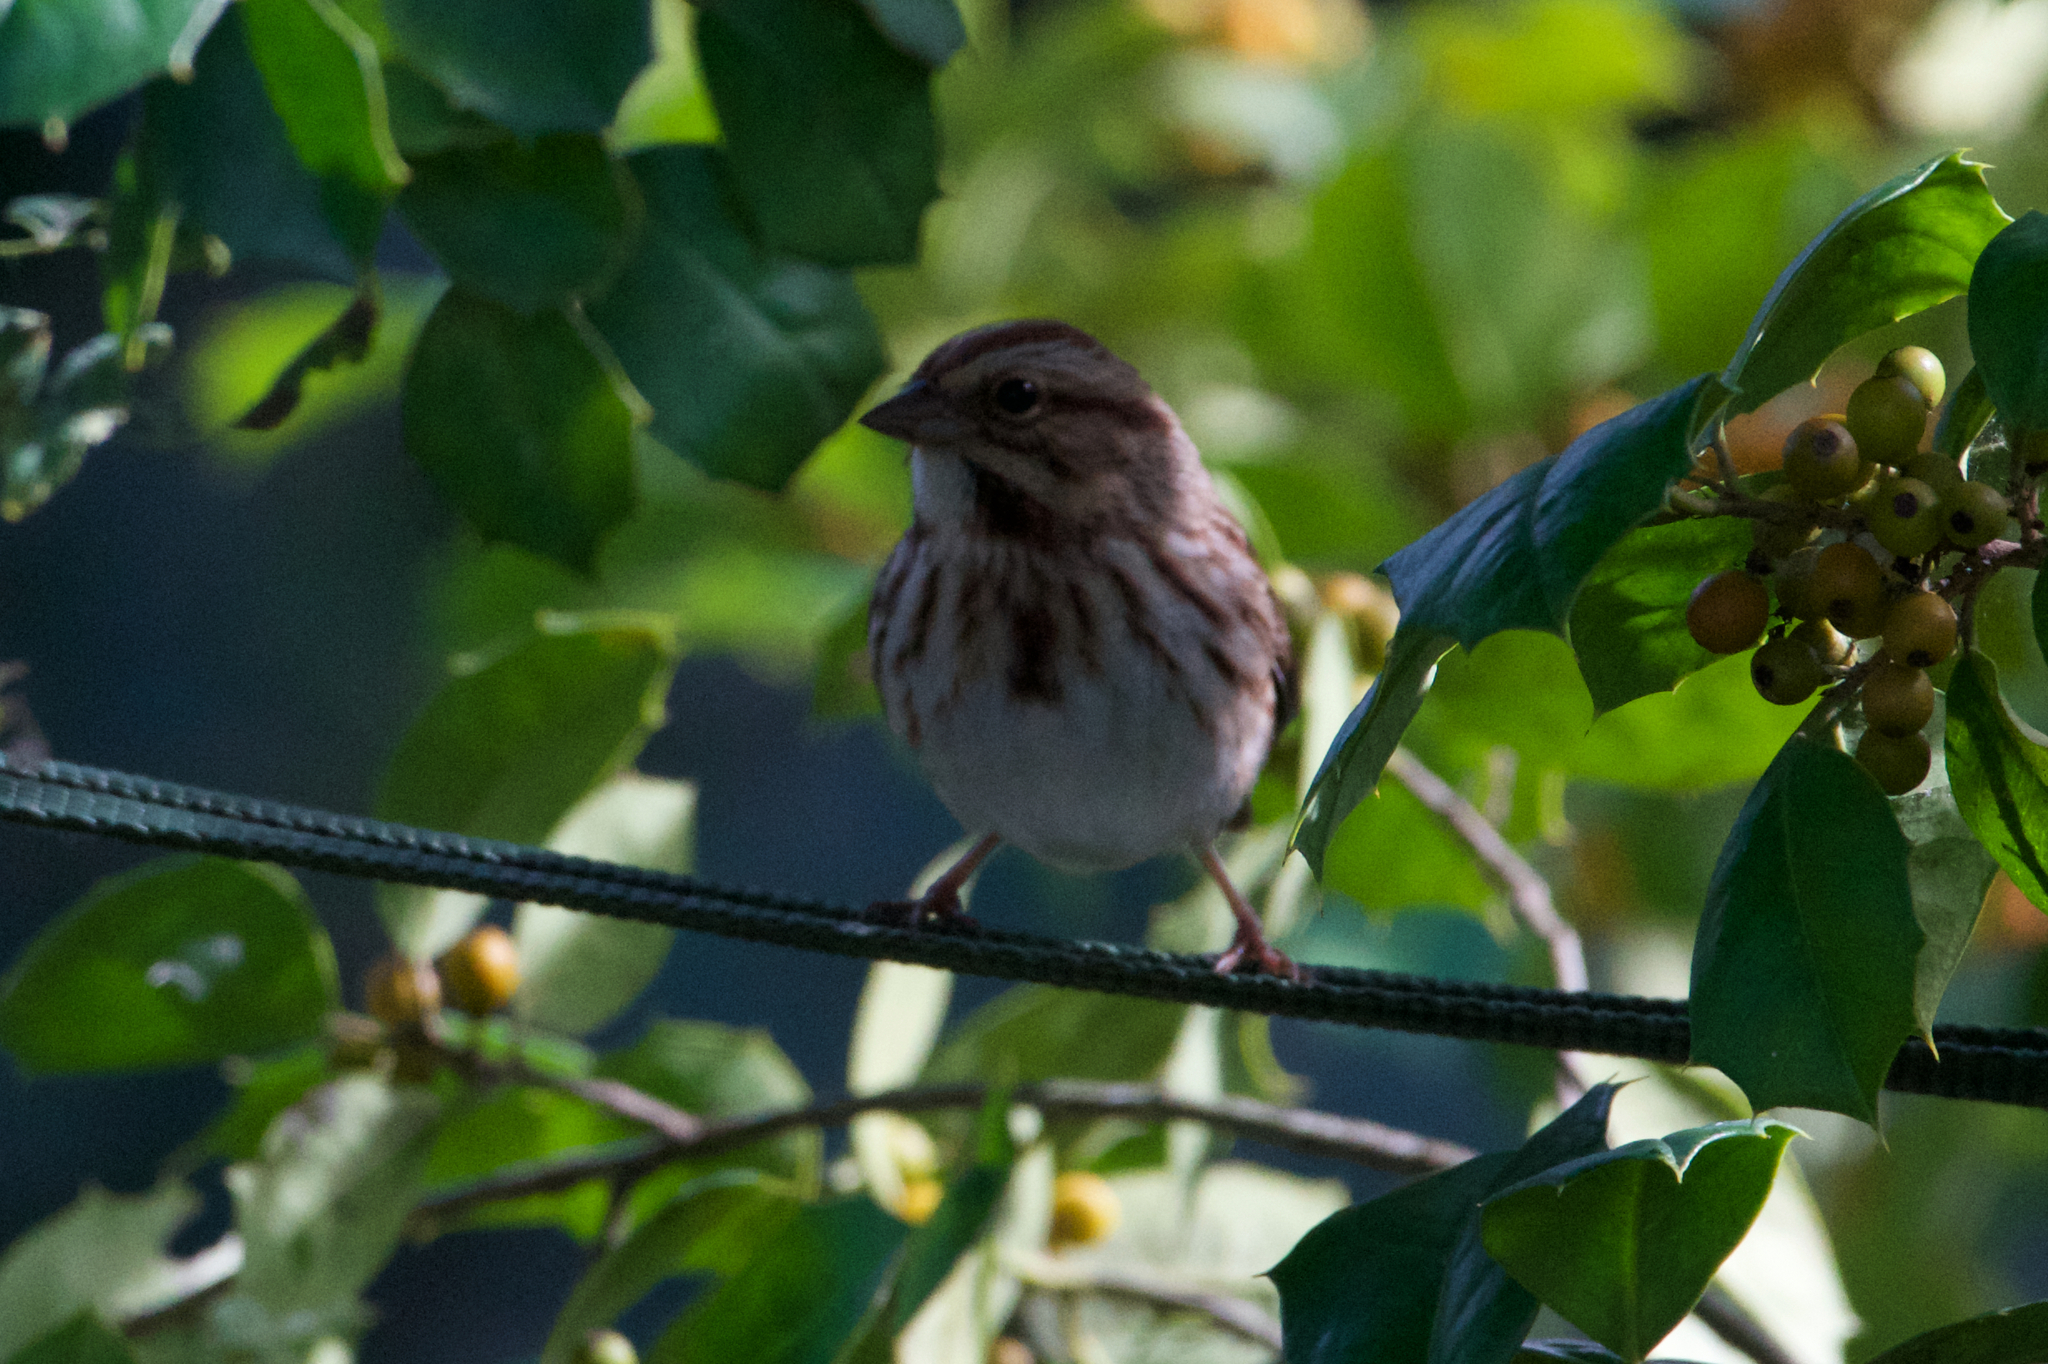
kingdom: Animalia
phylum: Chordata
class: Aves
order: Passeriformes
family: Passerellidae
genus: Melospiza
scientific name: Melospiza melodia
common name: Song sparrow
